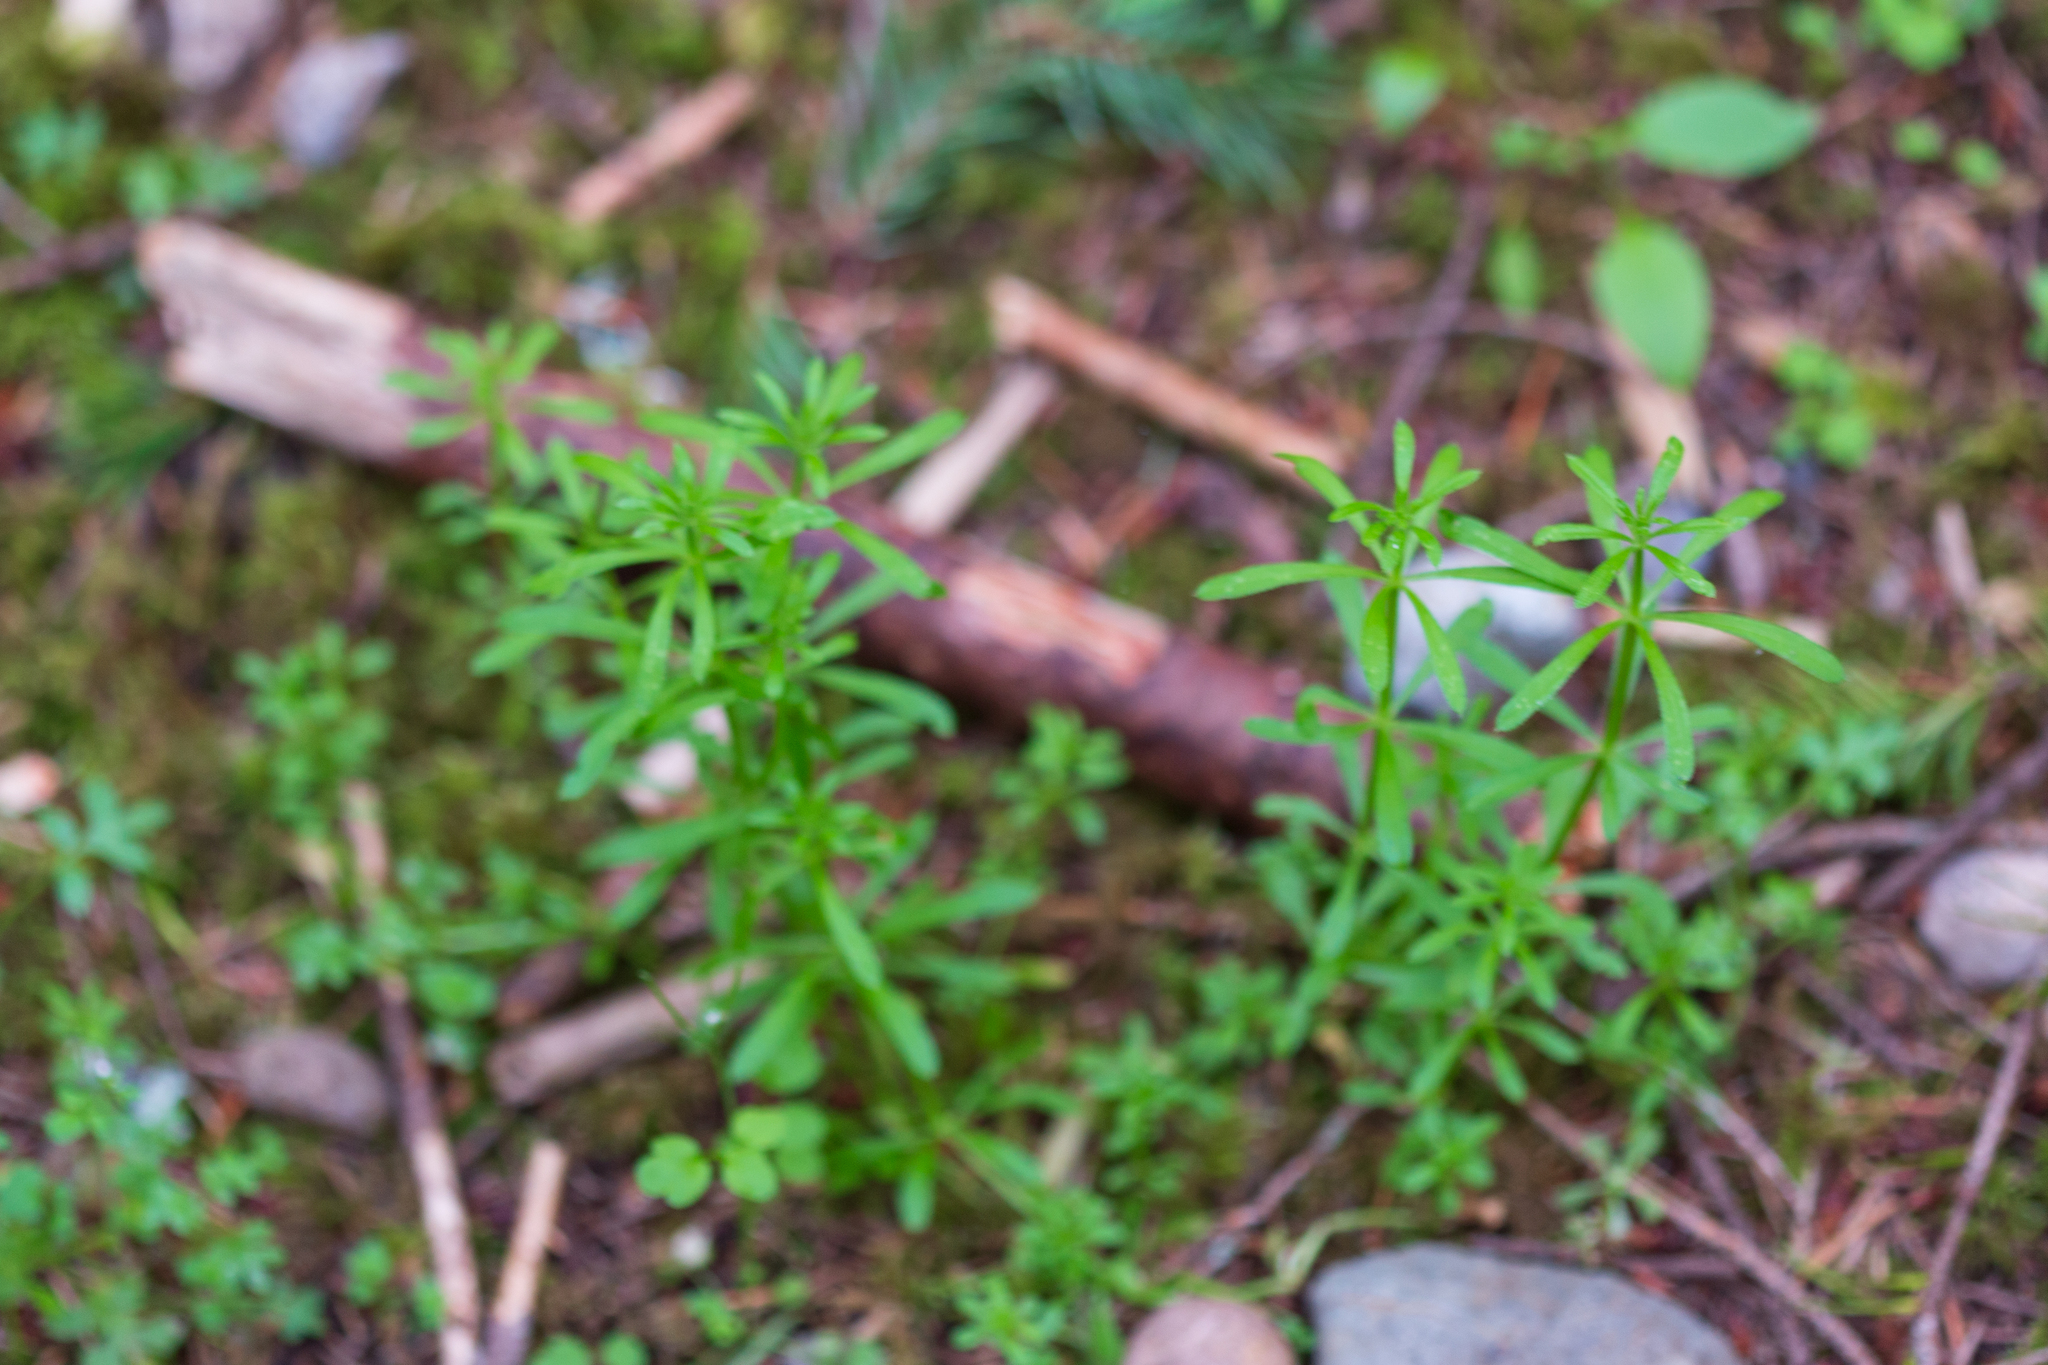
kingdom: Plantae
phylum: Tracheophyta
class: Magnoliopsida
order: Gentianales
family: Rubiaceae
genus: Galium
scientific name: Galium aparine
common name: Cleavers
